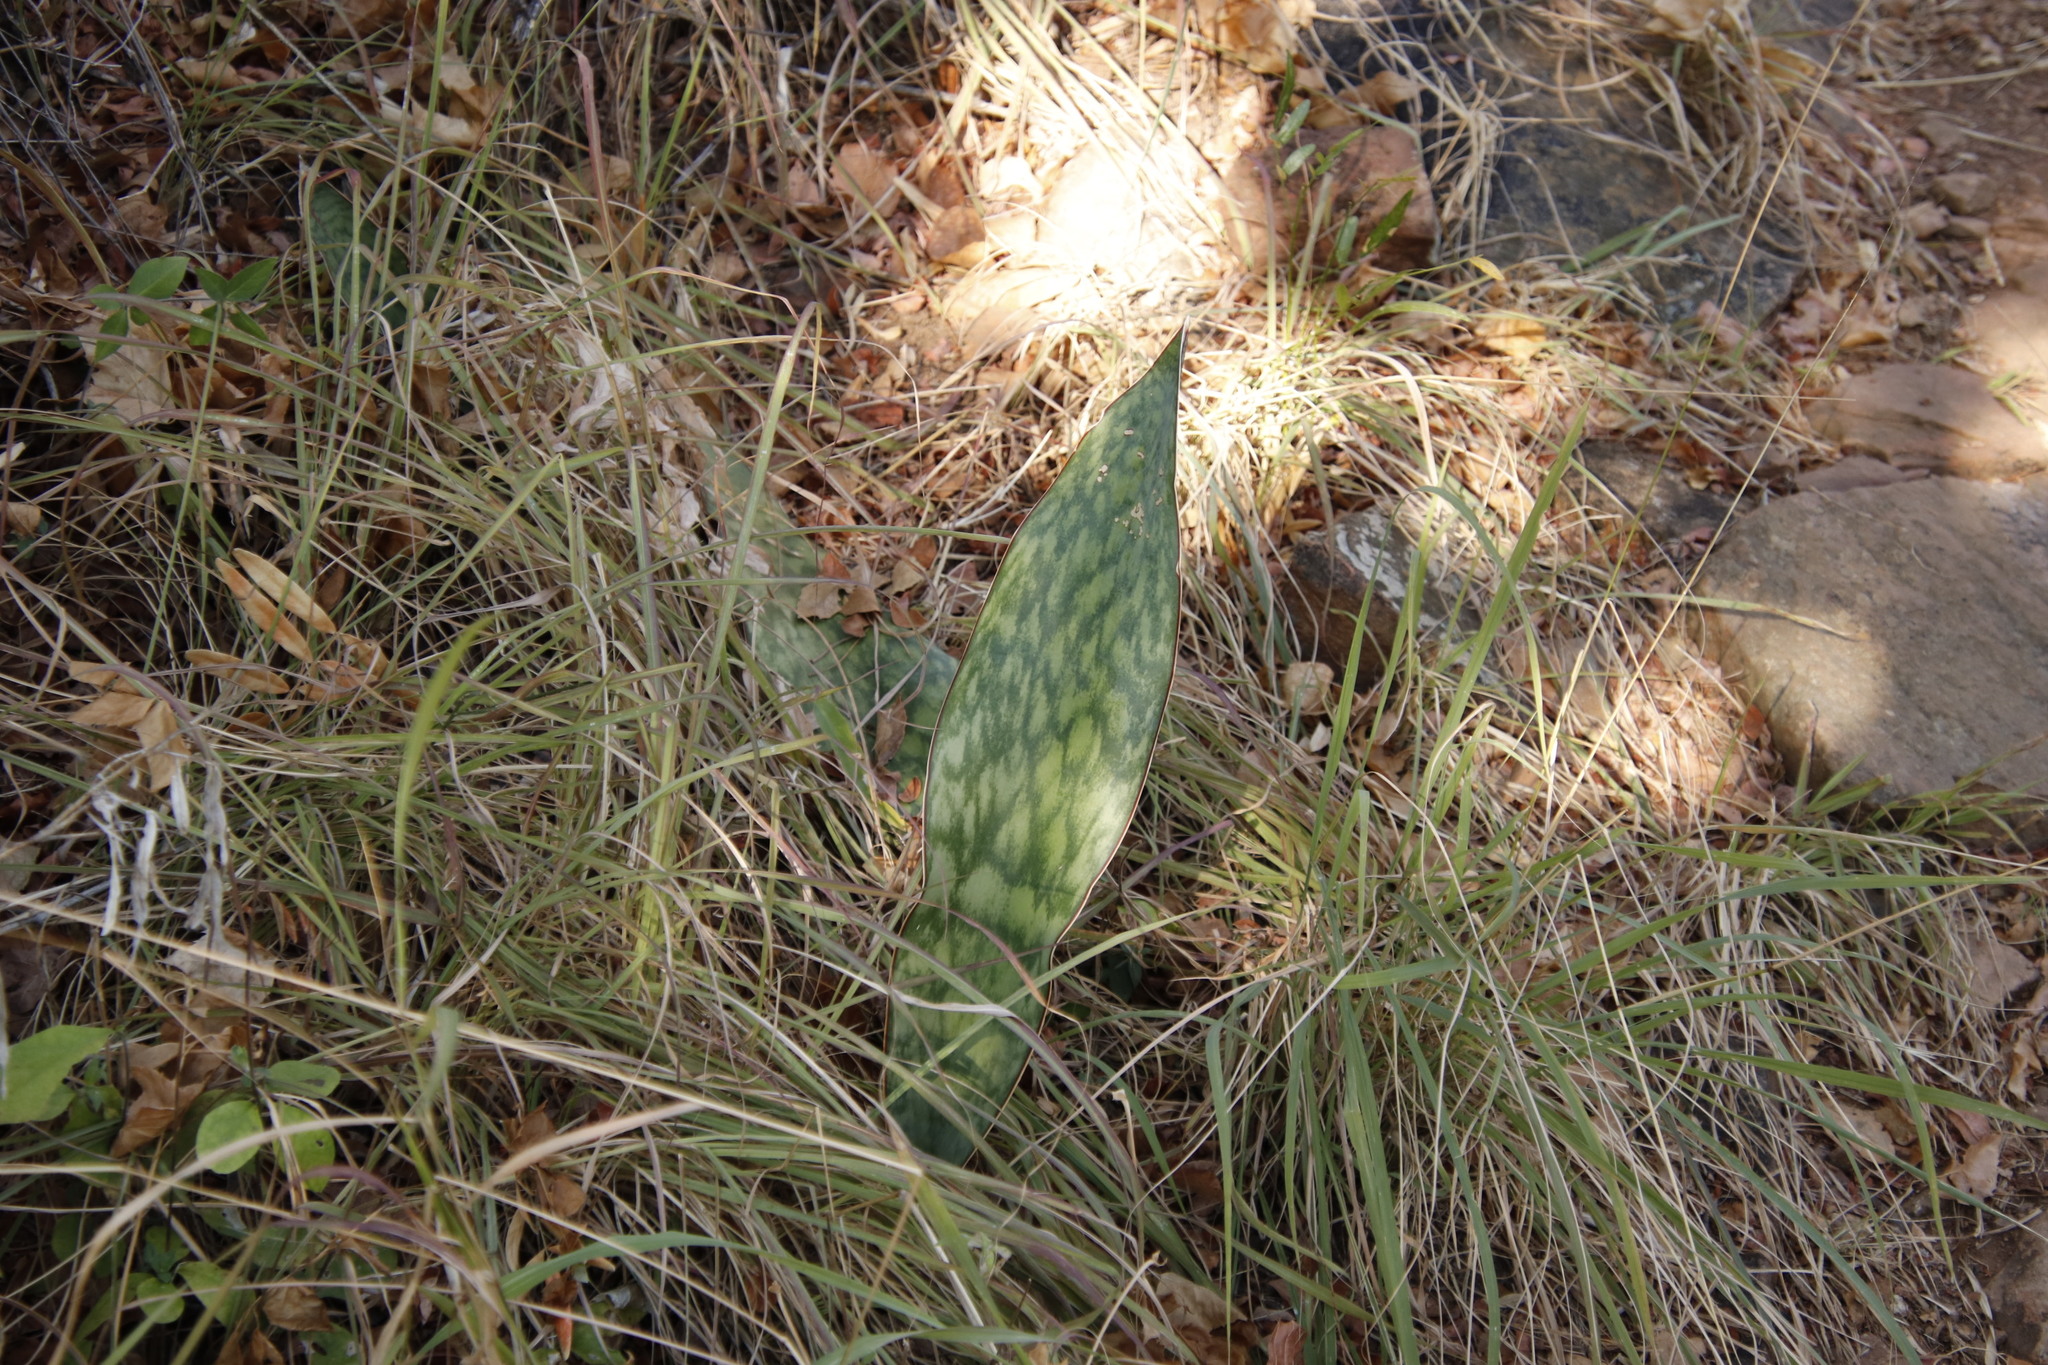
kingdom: Plantae
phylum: Tracheophyta
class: Liliopsida
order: Asparagales
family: Asparagaceae
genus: Dracaena
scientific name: Dracaena hyacinthoides
